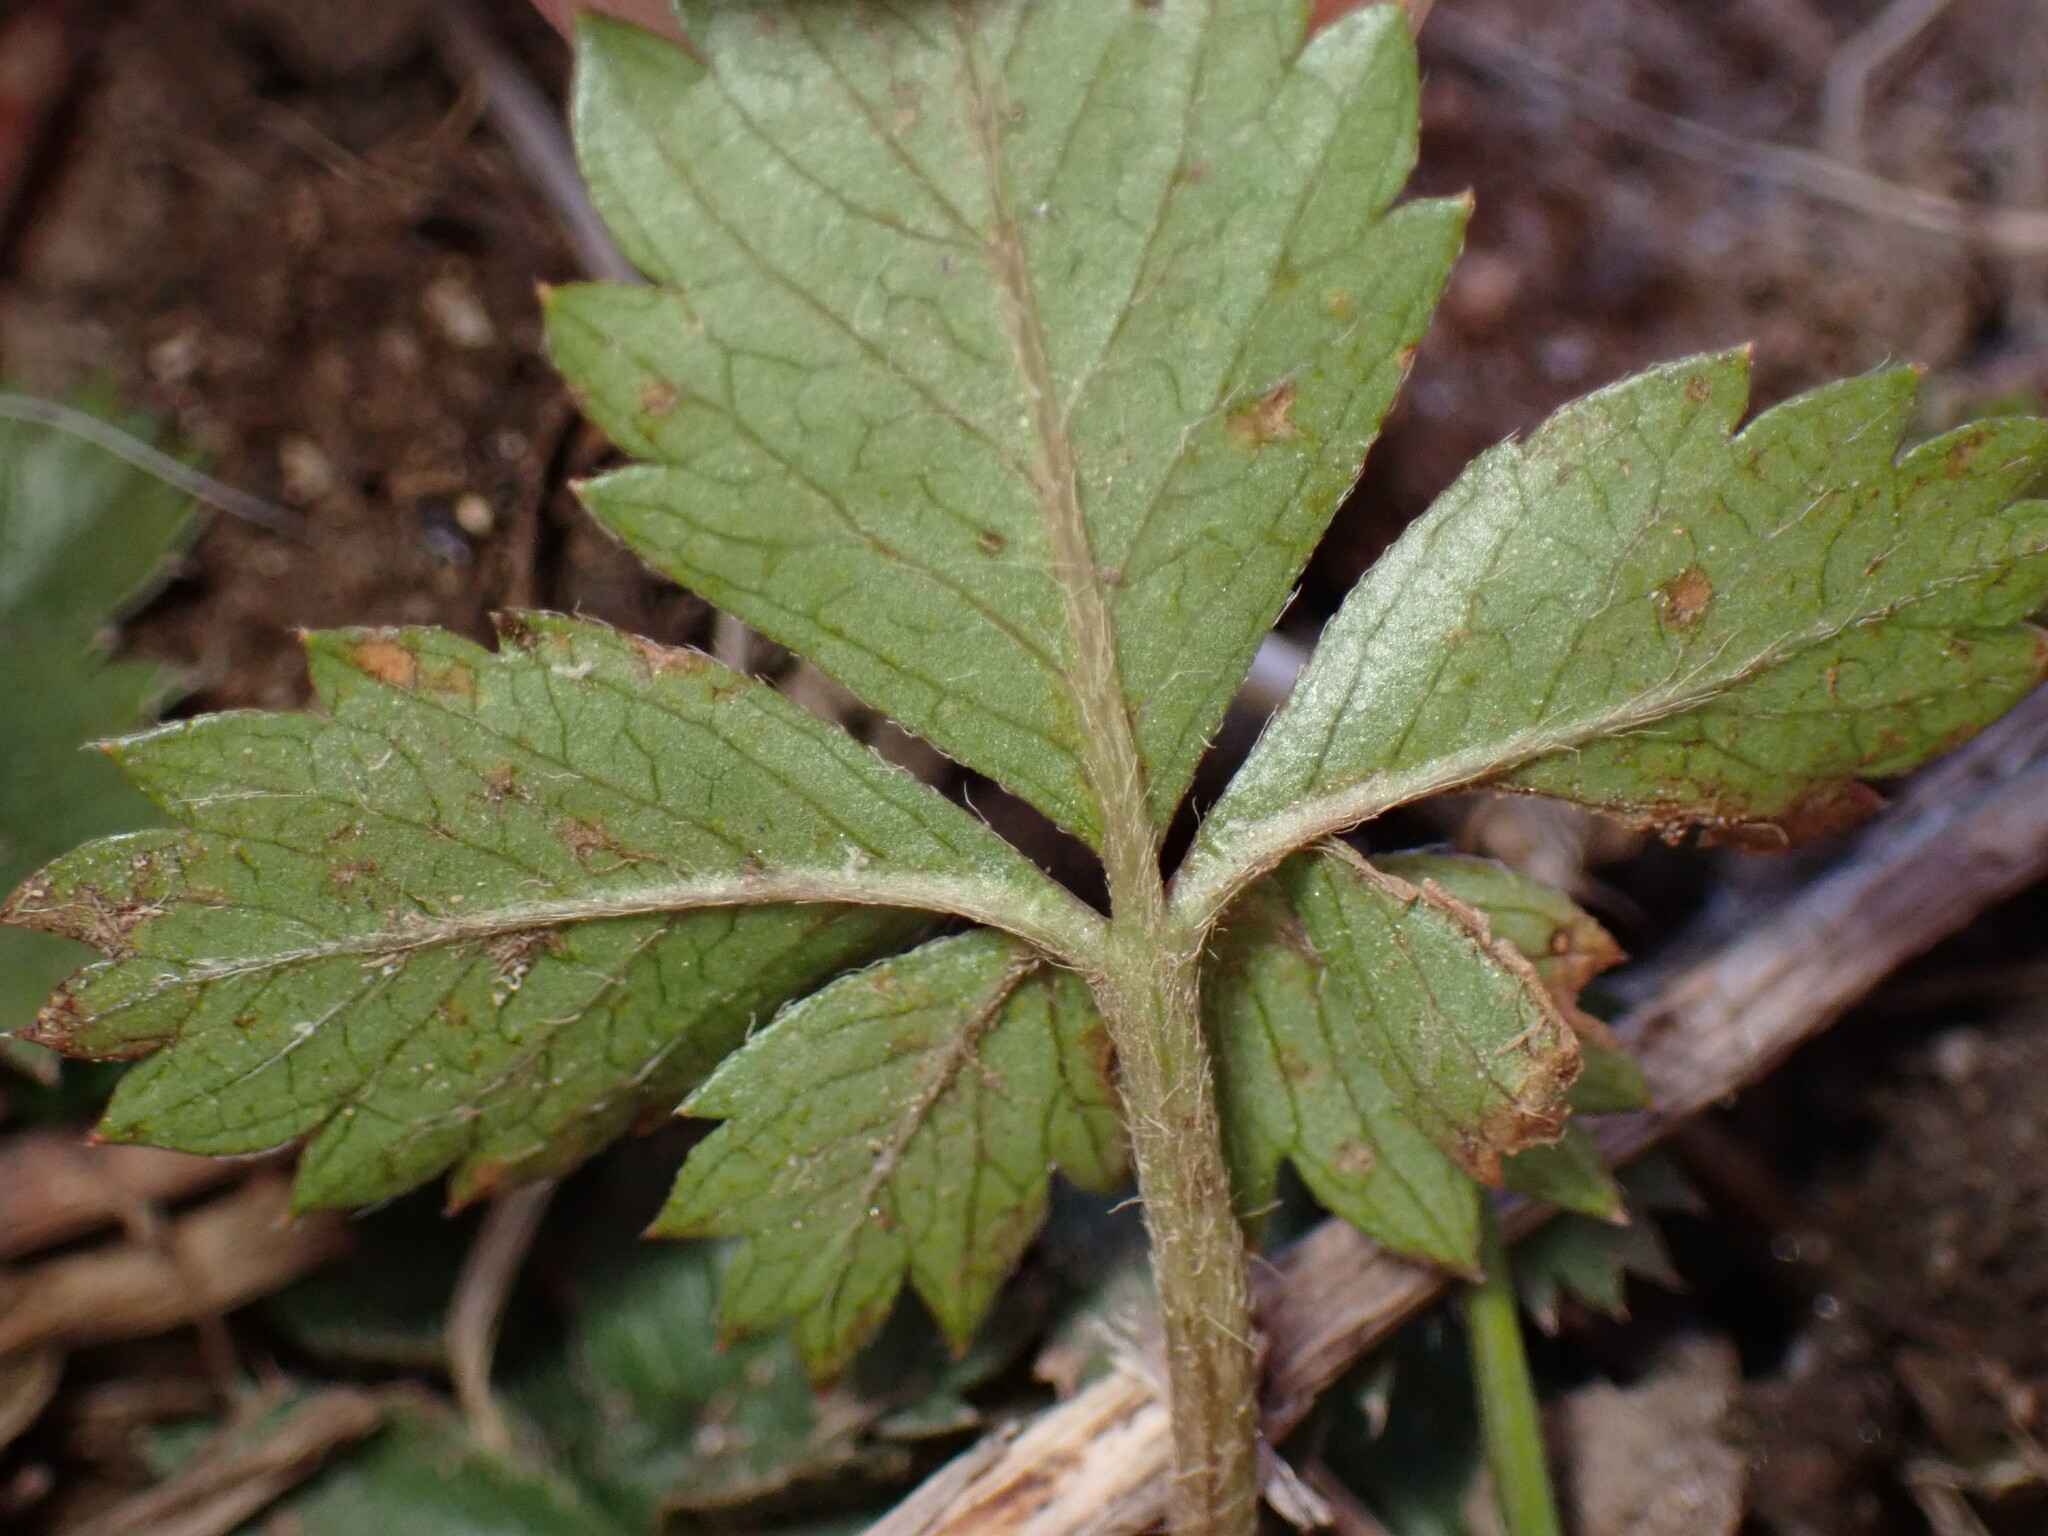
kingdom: Plantae
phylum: Tracheophyta
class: Magnoliopsida
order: Rosales
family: Rosaceae
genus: Potentilla
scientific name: Potentilla canadensis
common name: Canada cinquefoil
